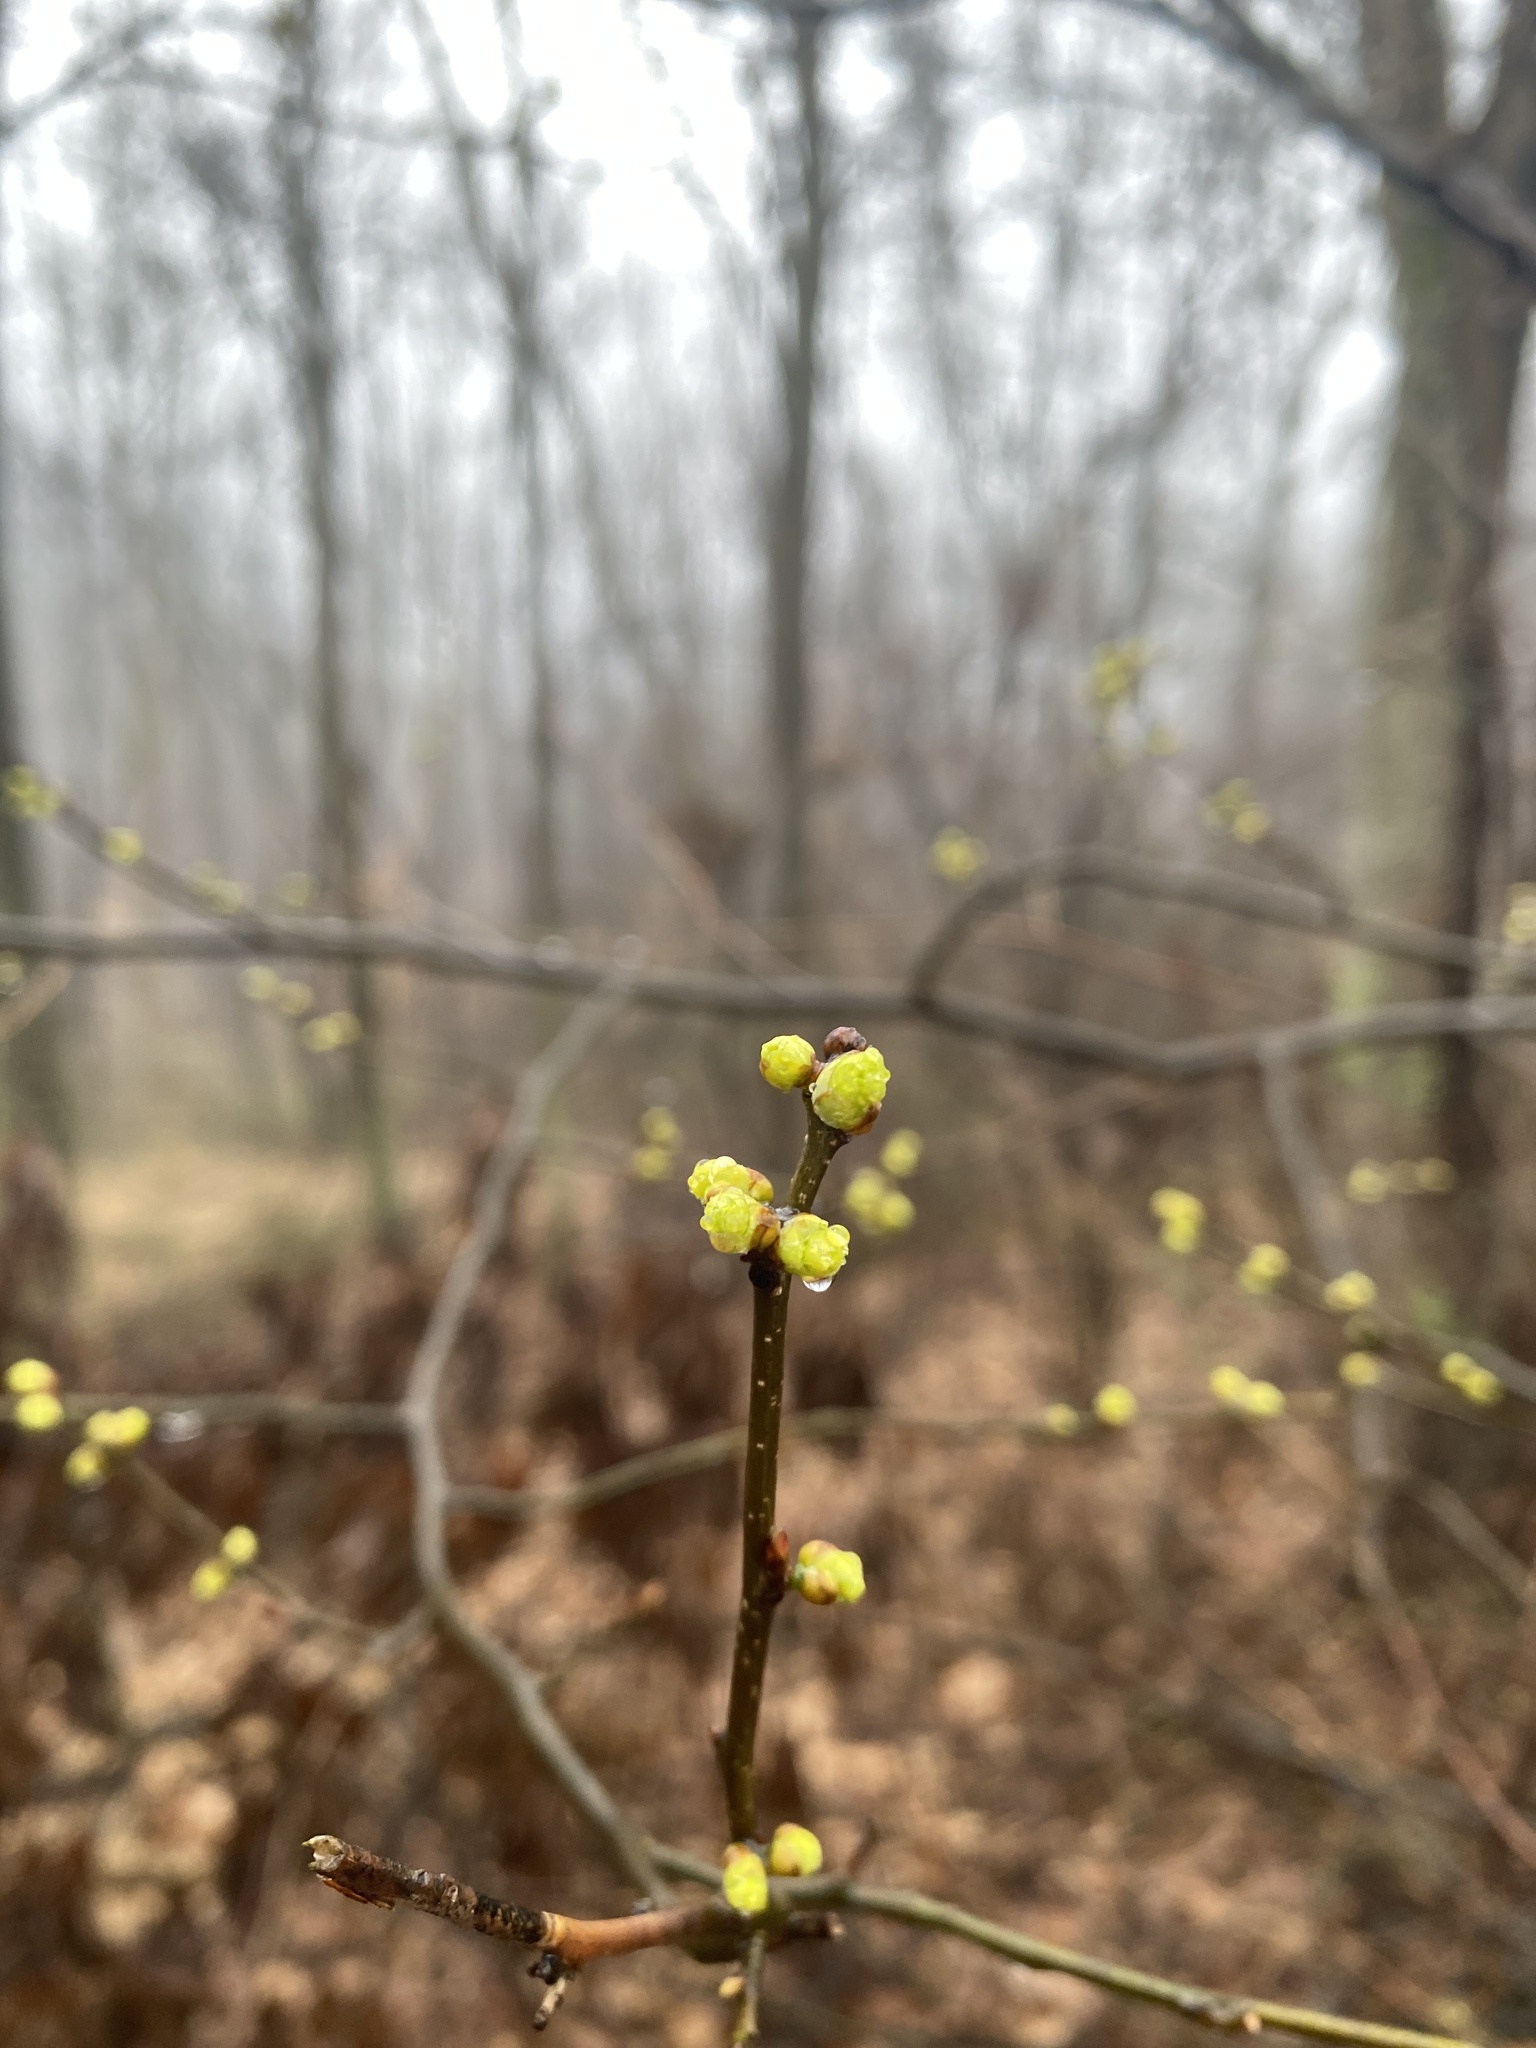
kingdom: Plantae
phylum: Tracheophyta
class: Magnoliopsida
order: Laurales
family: Lauraceae
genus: Lindera
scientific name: Lindera benzoin
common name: Spicebush
